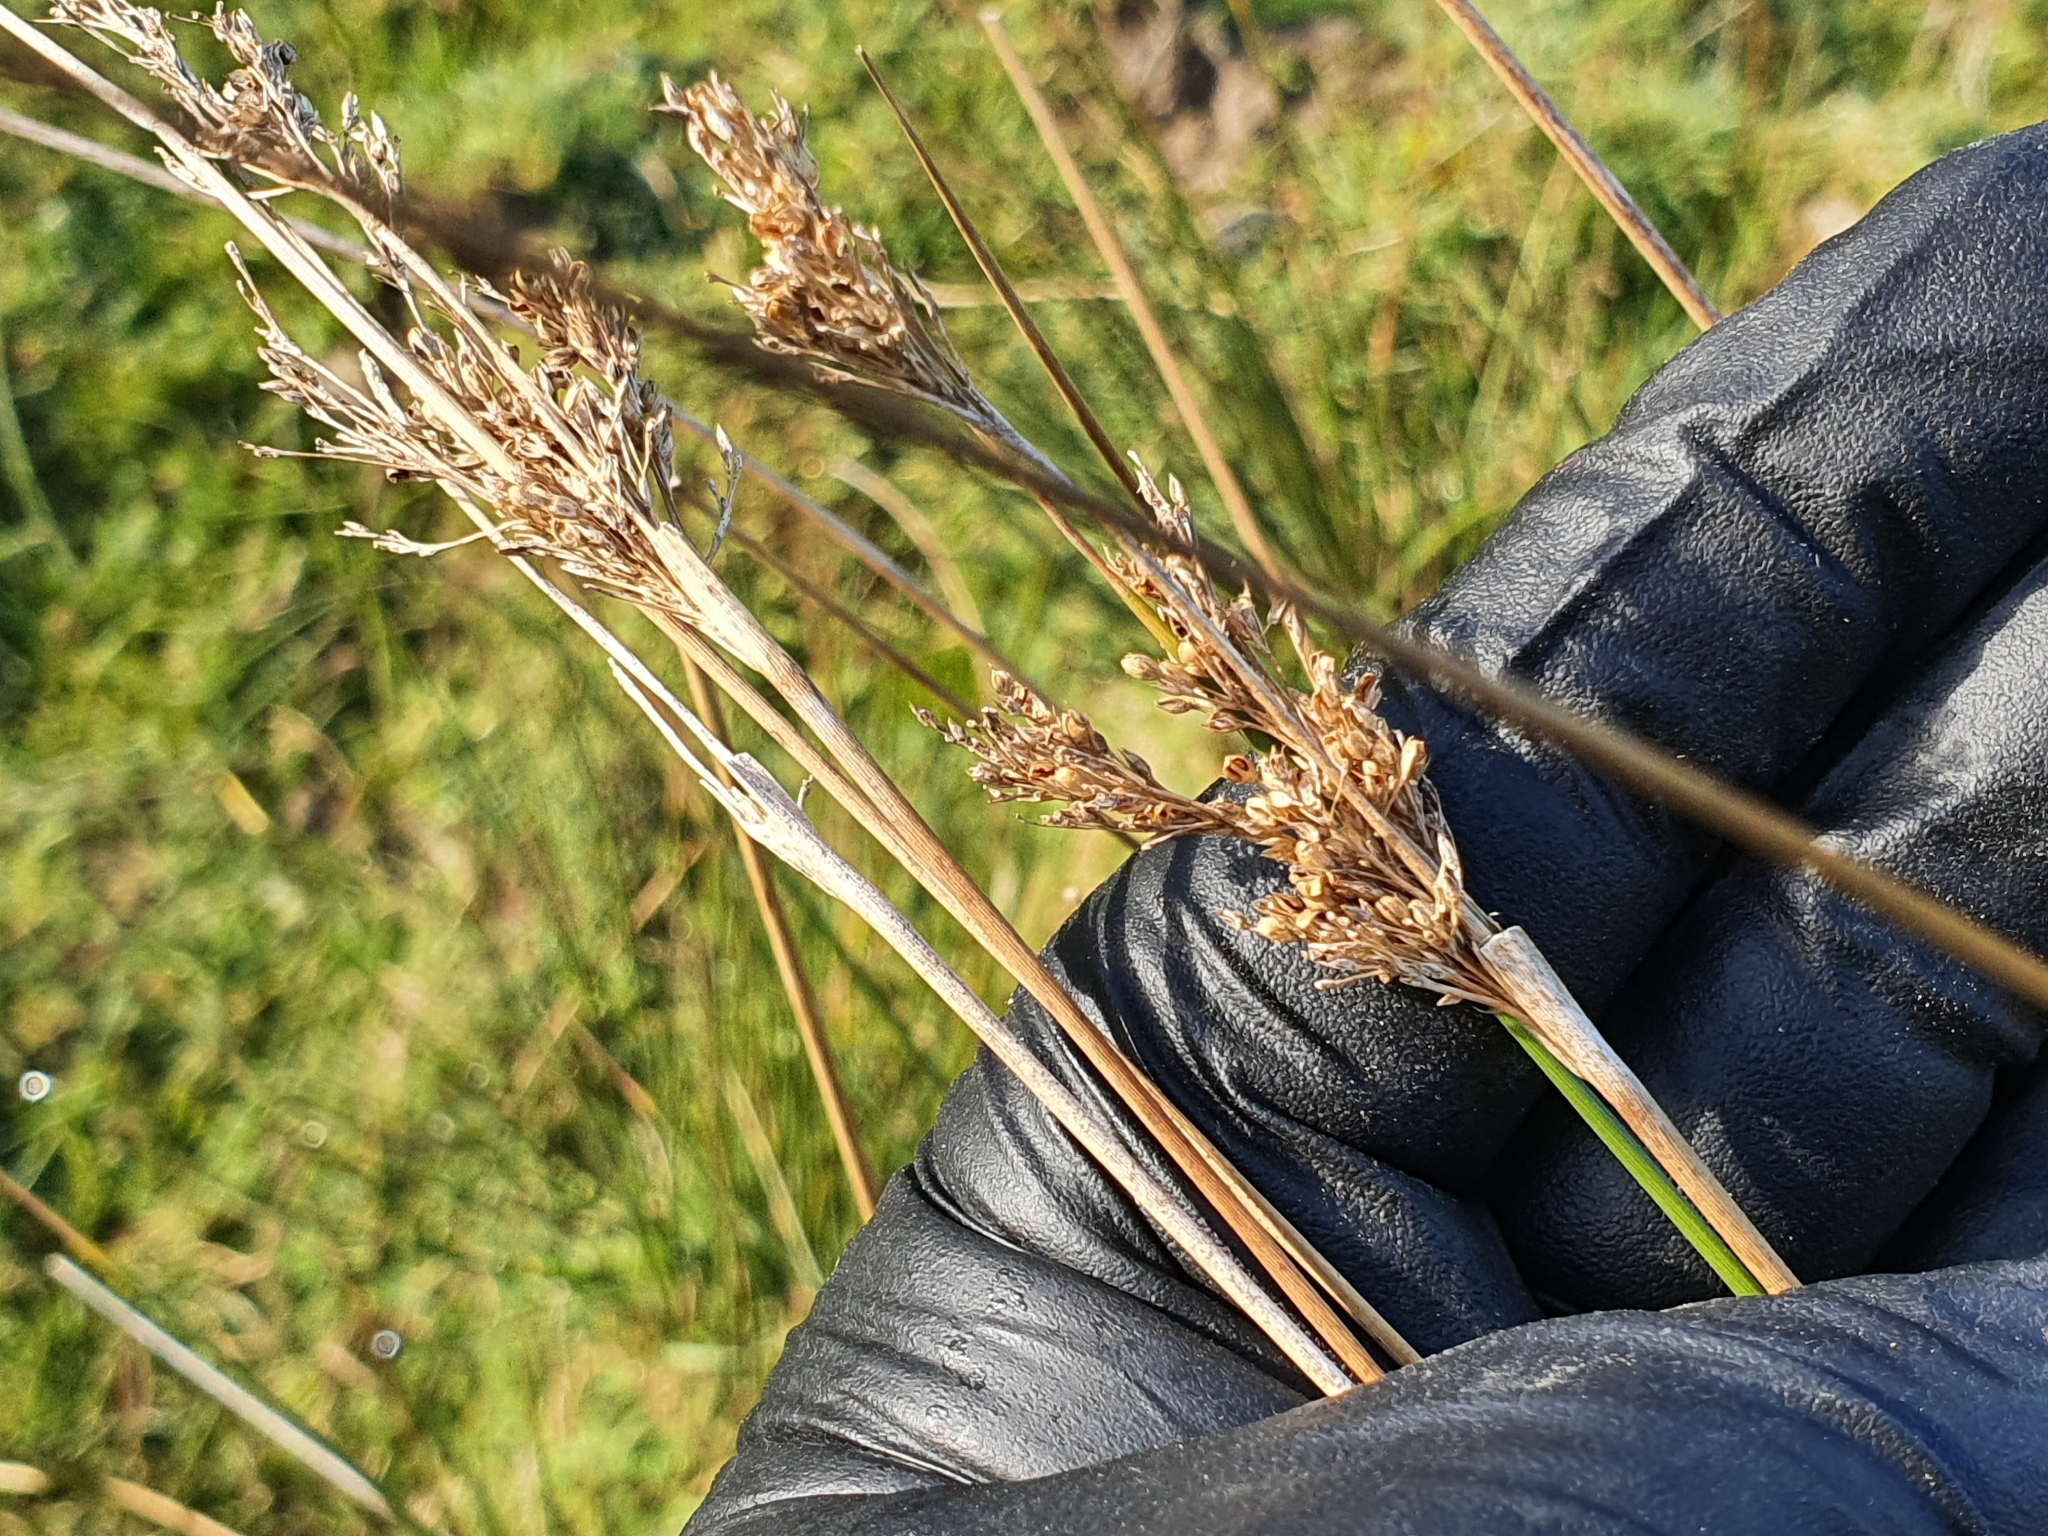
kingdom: Plantae
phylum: Tracheophyta
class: Liliopsida
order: Poales
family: Juncaceae
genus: Juncus
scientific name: Juncus sarophorus
